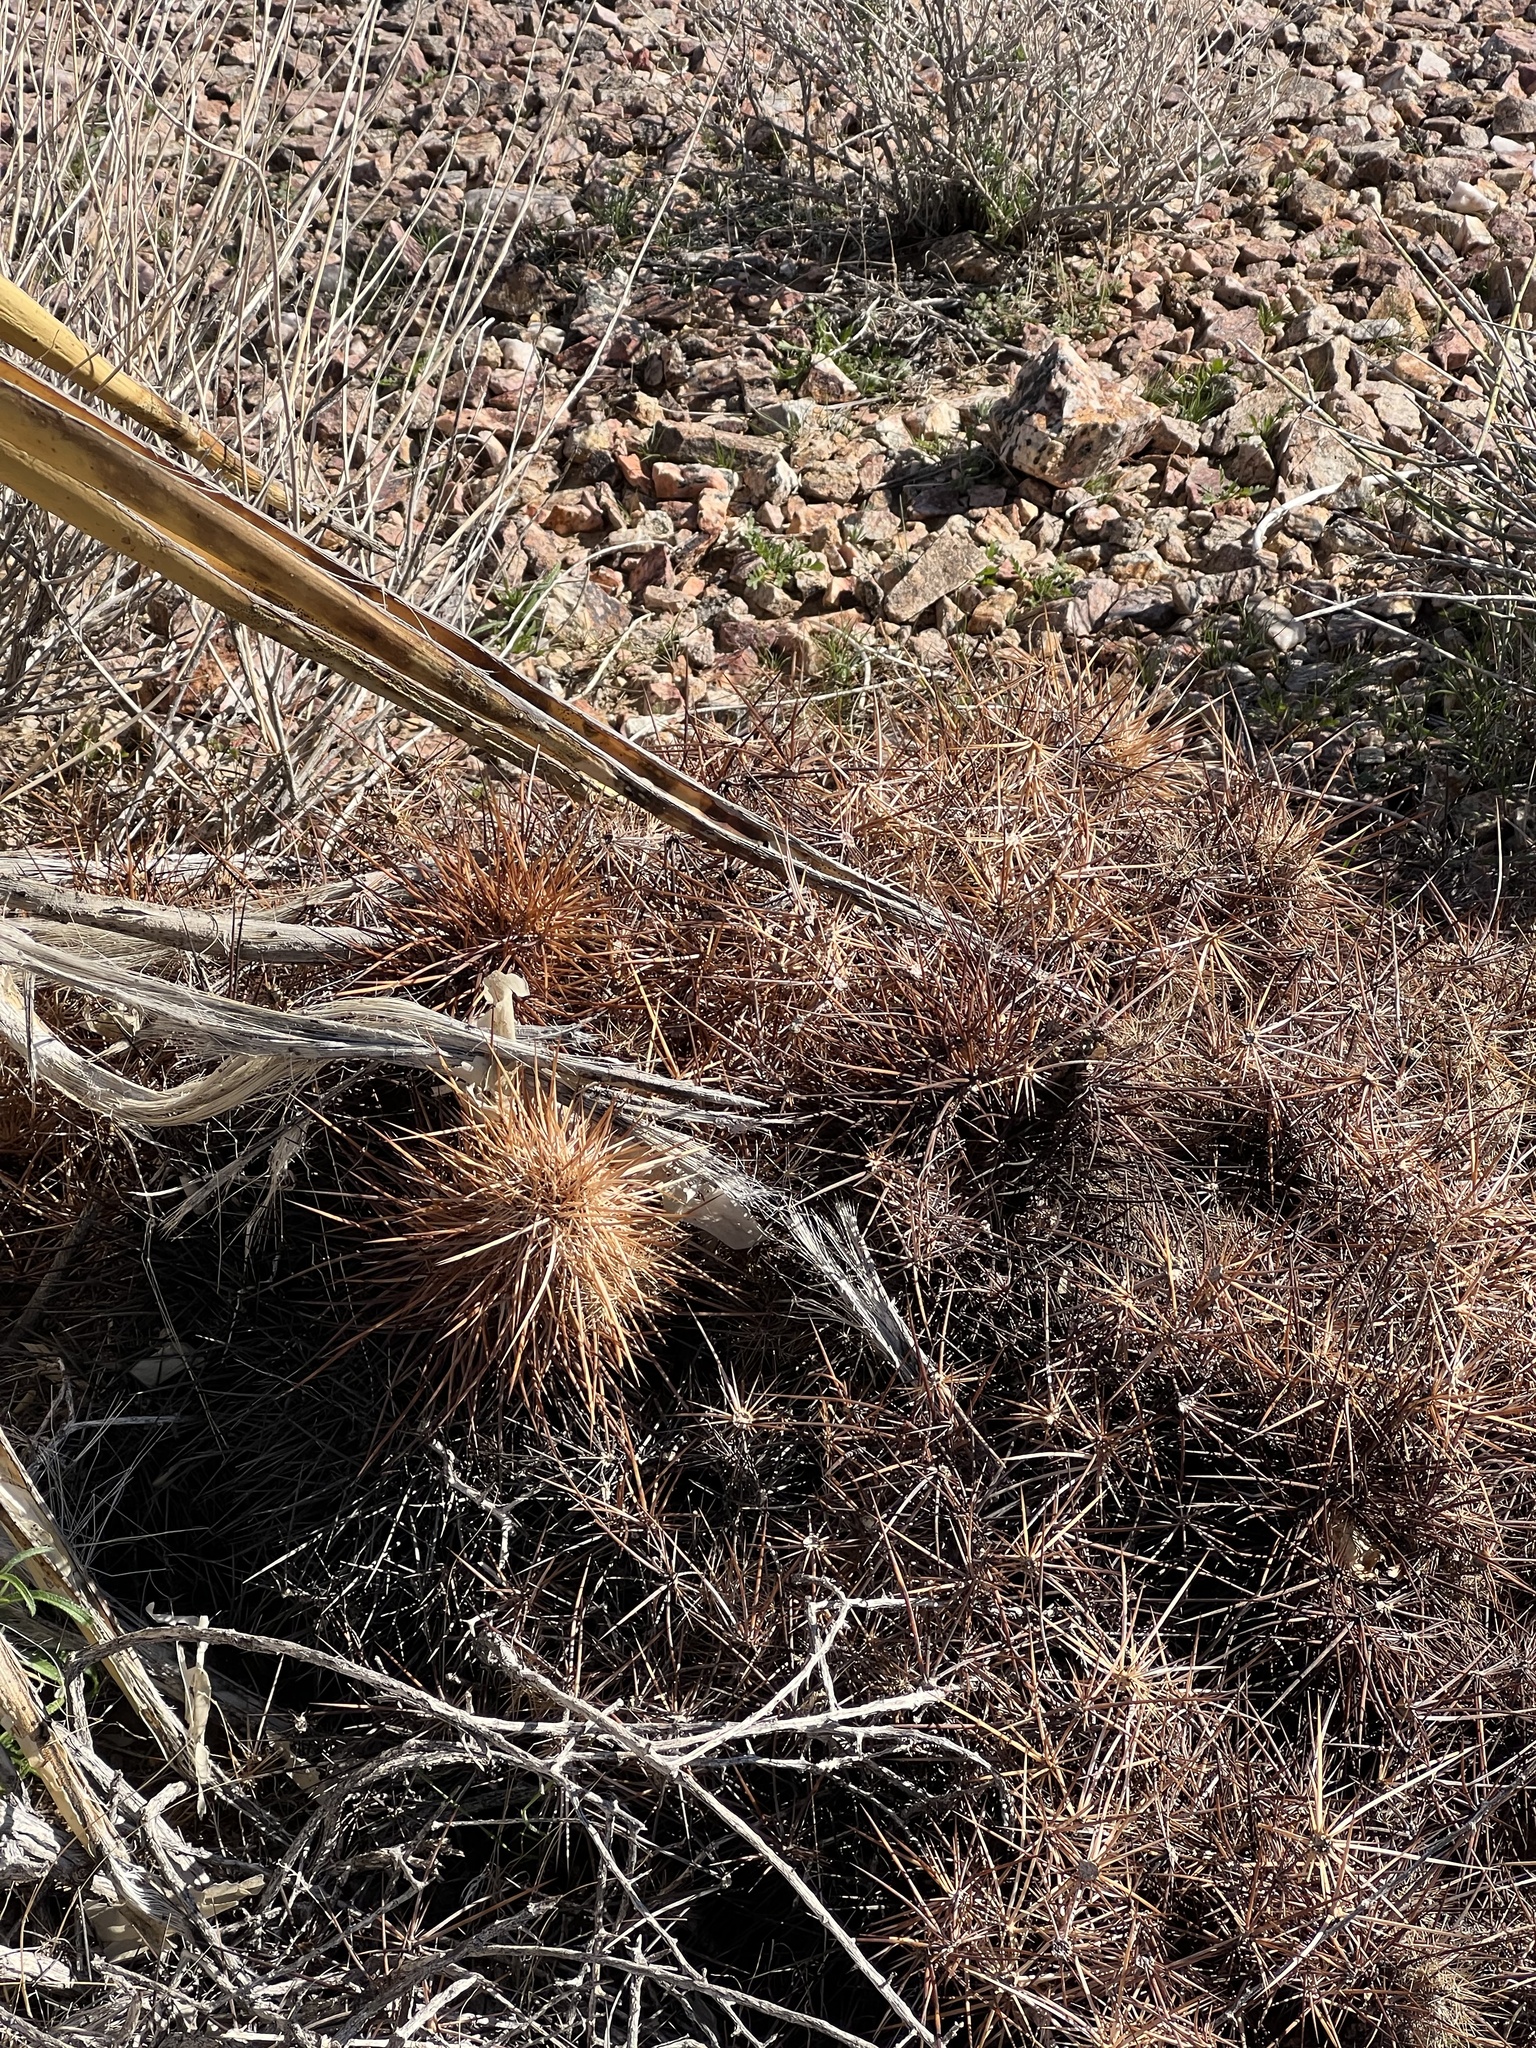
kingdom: Plantae
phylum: Tracheophyta
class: Magnoliopsida
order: Caryophyllales
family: Cactaceae
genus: Echinocereus
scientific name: Echinocereus engelmannii
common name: Engelmann's hedgehog cactus
